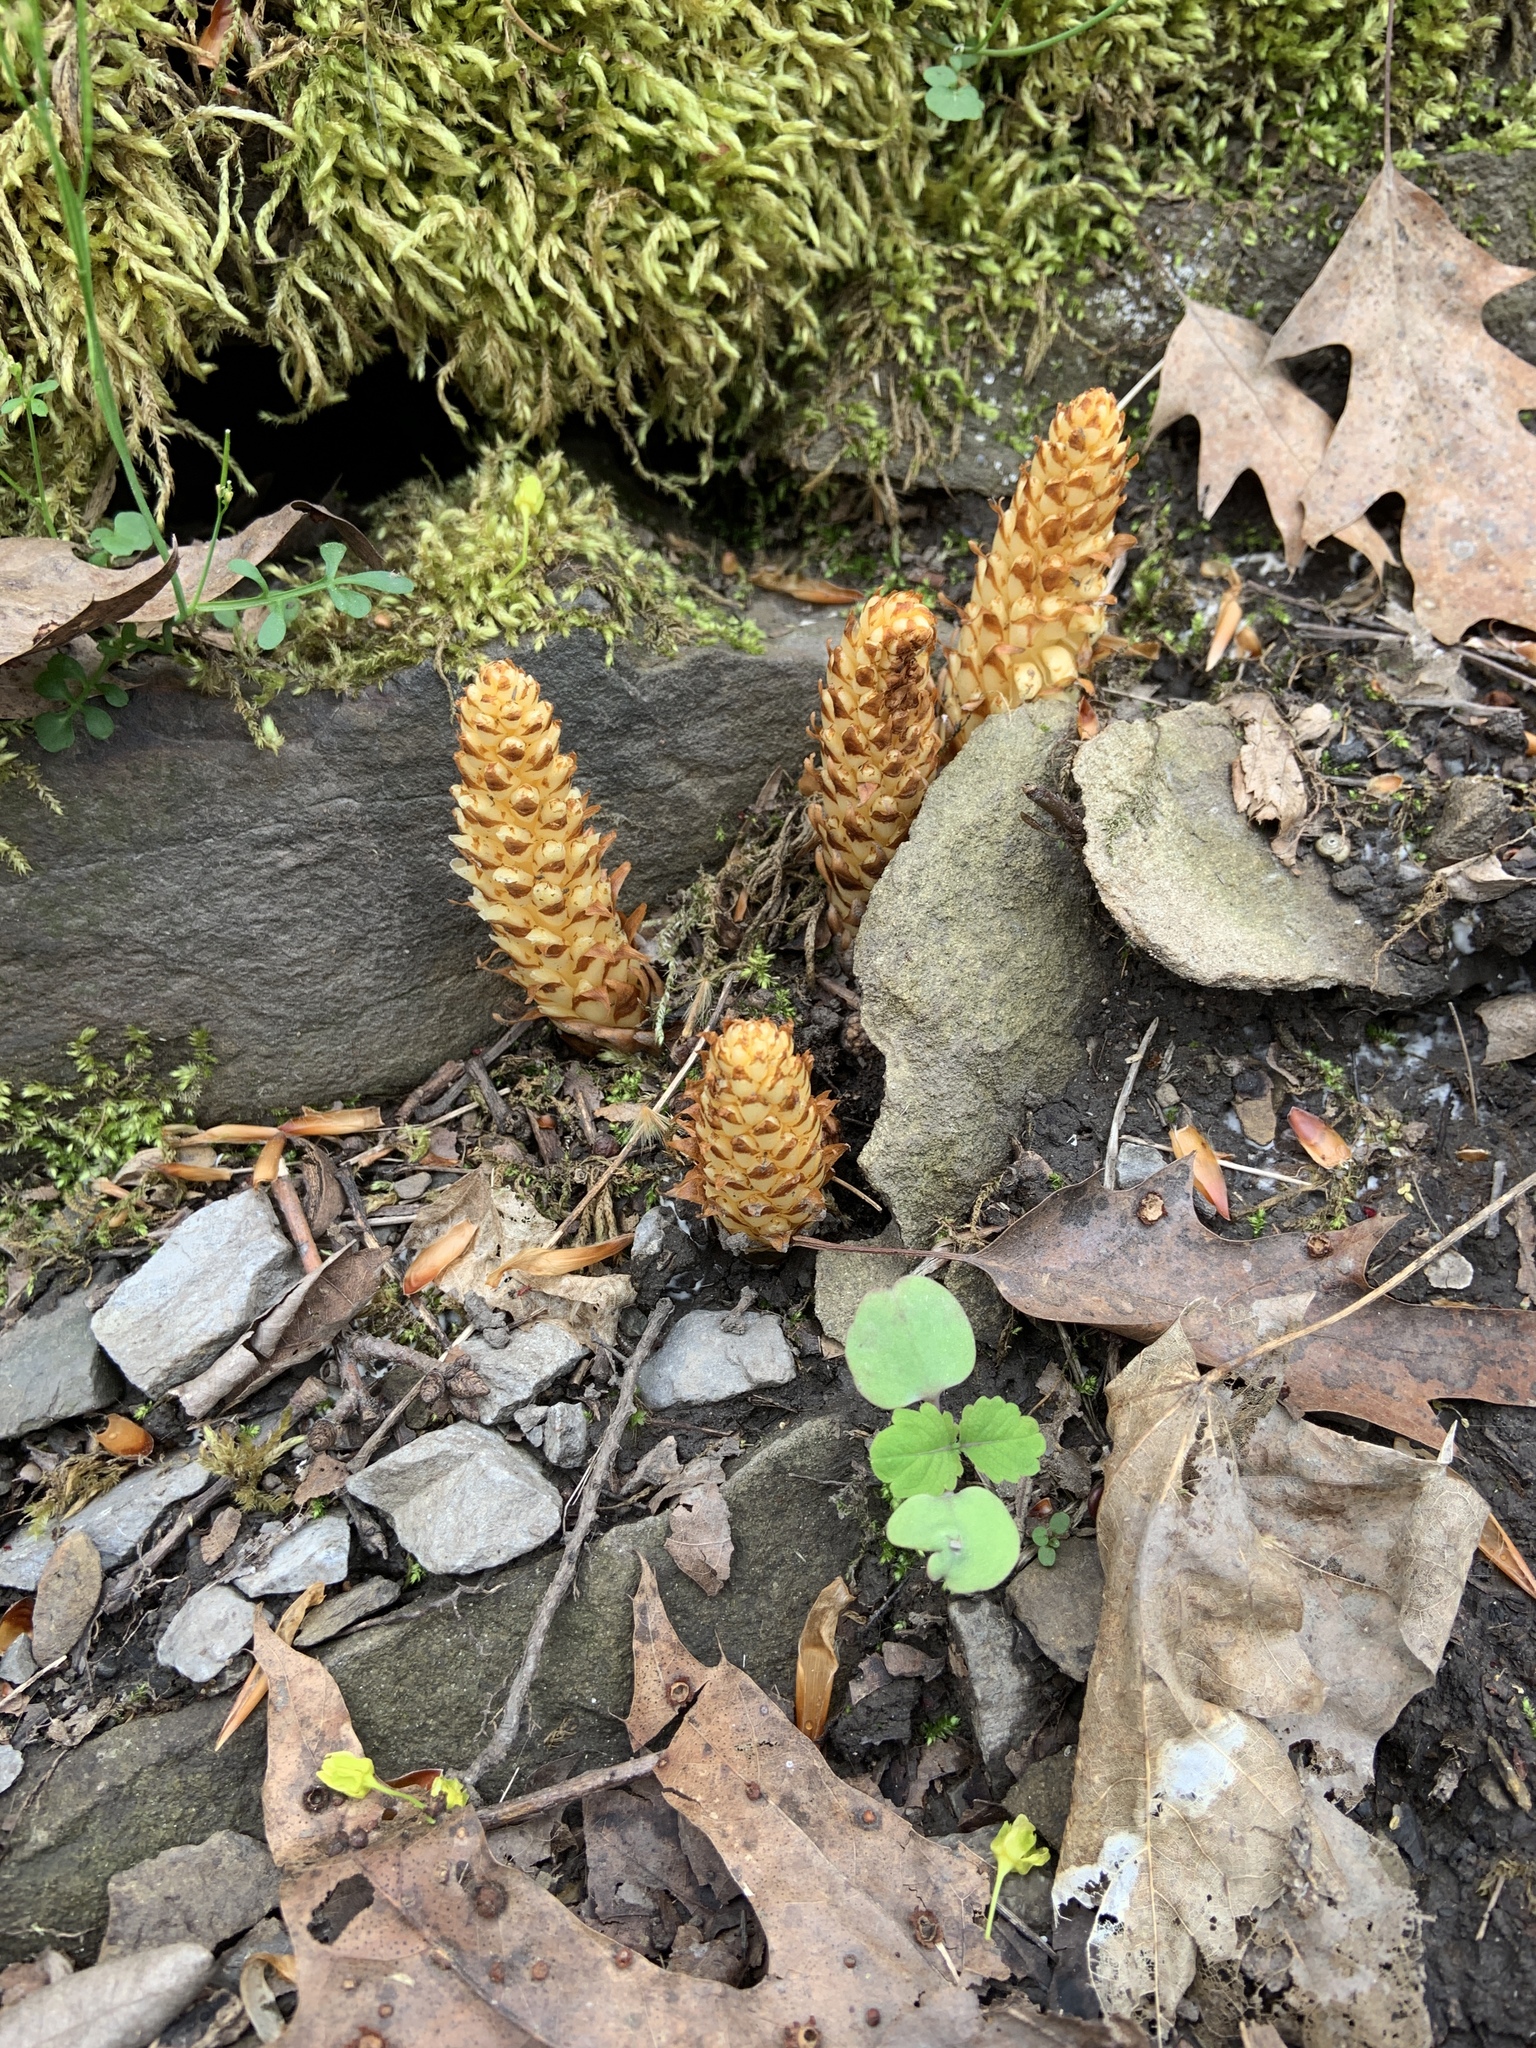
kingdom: Plantae
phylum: Tracheophyta
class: Magnoliopsida
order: Lamiales
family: Orobanchaceae
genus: Conopholis
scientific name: Conopholis americana
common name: American cancer-root
